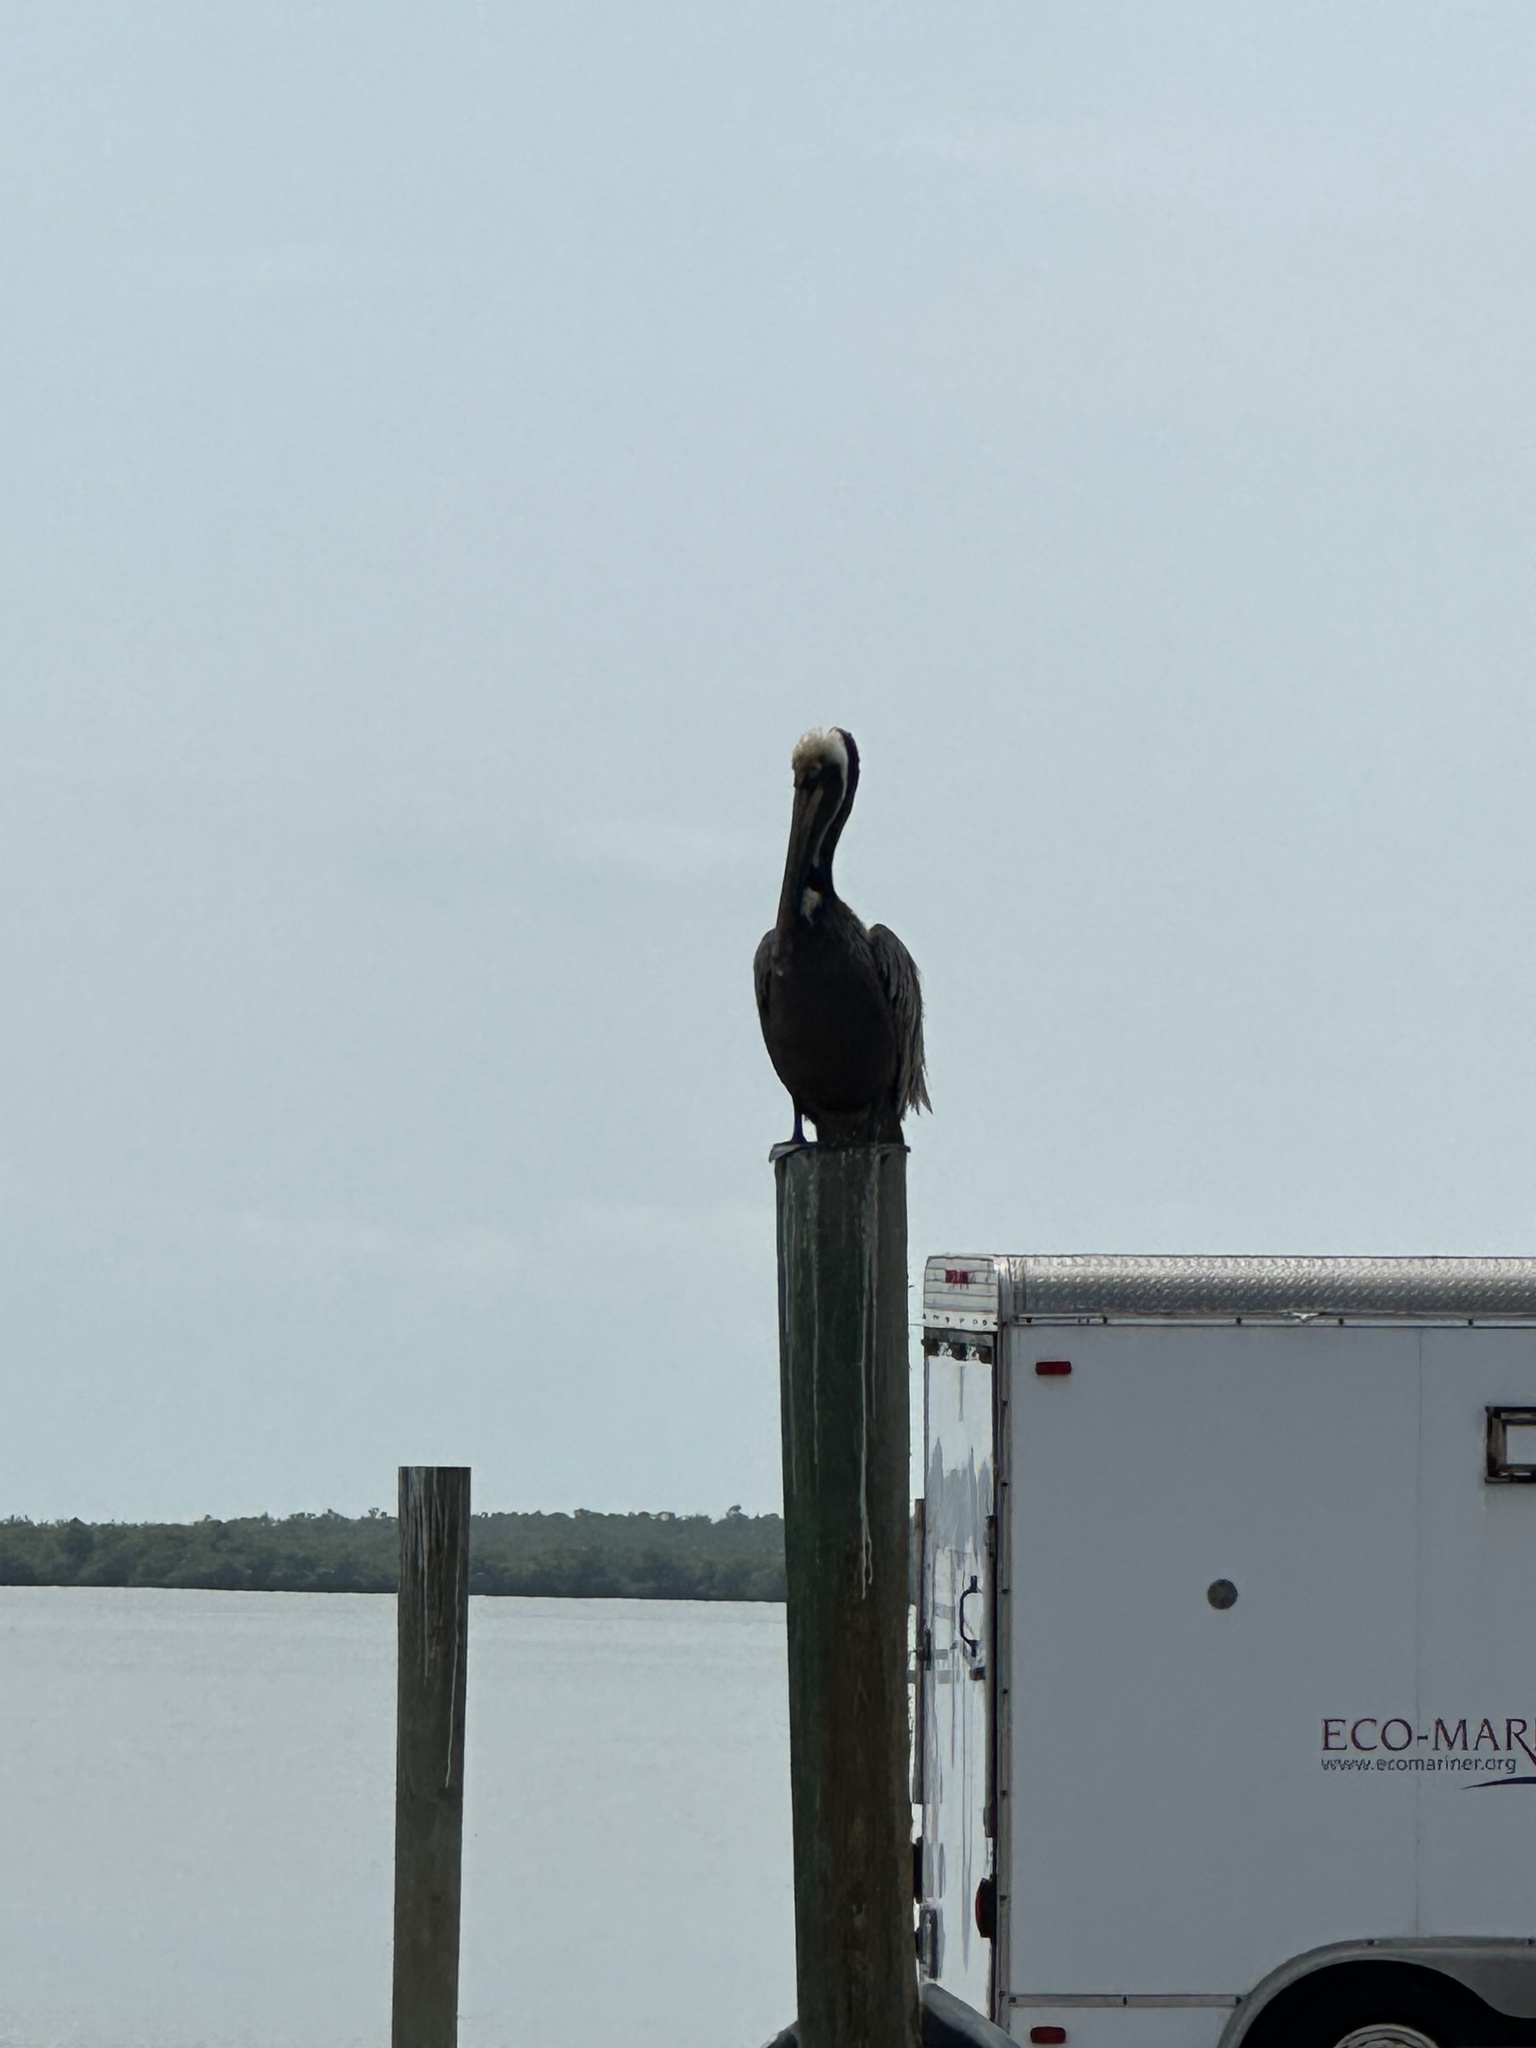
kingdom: Animalia
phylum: Chordata
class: Aves
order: Pelecaniformes
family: Pelecanidae
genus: Pelecanus
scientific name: Pelecanus occidentalis
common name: Brown pelican
